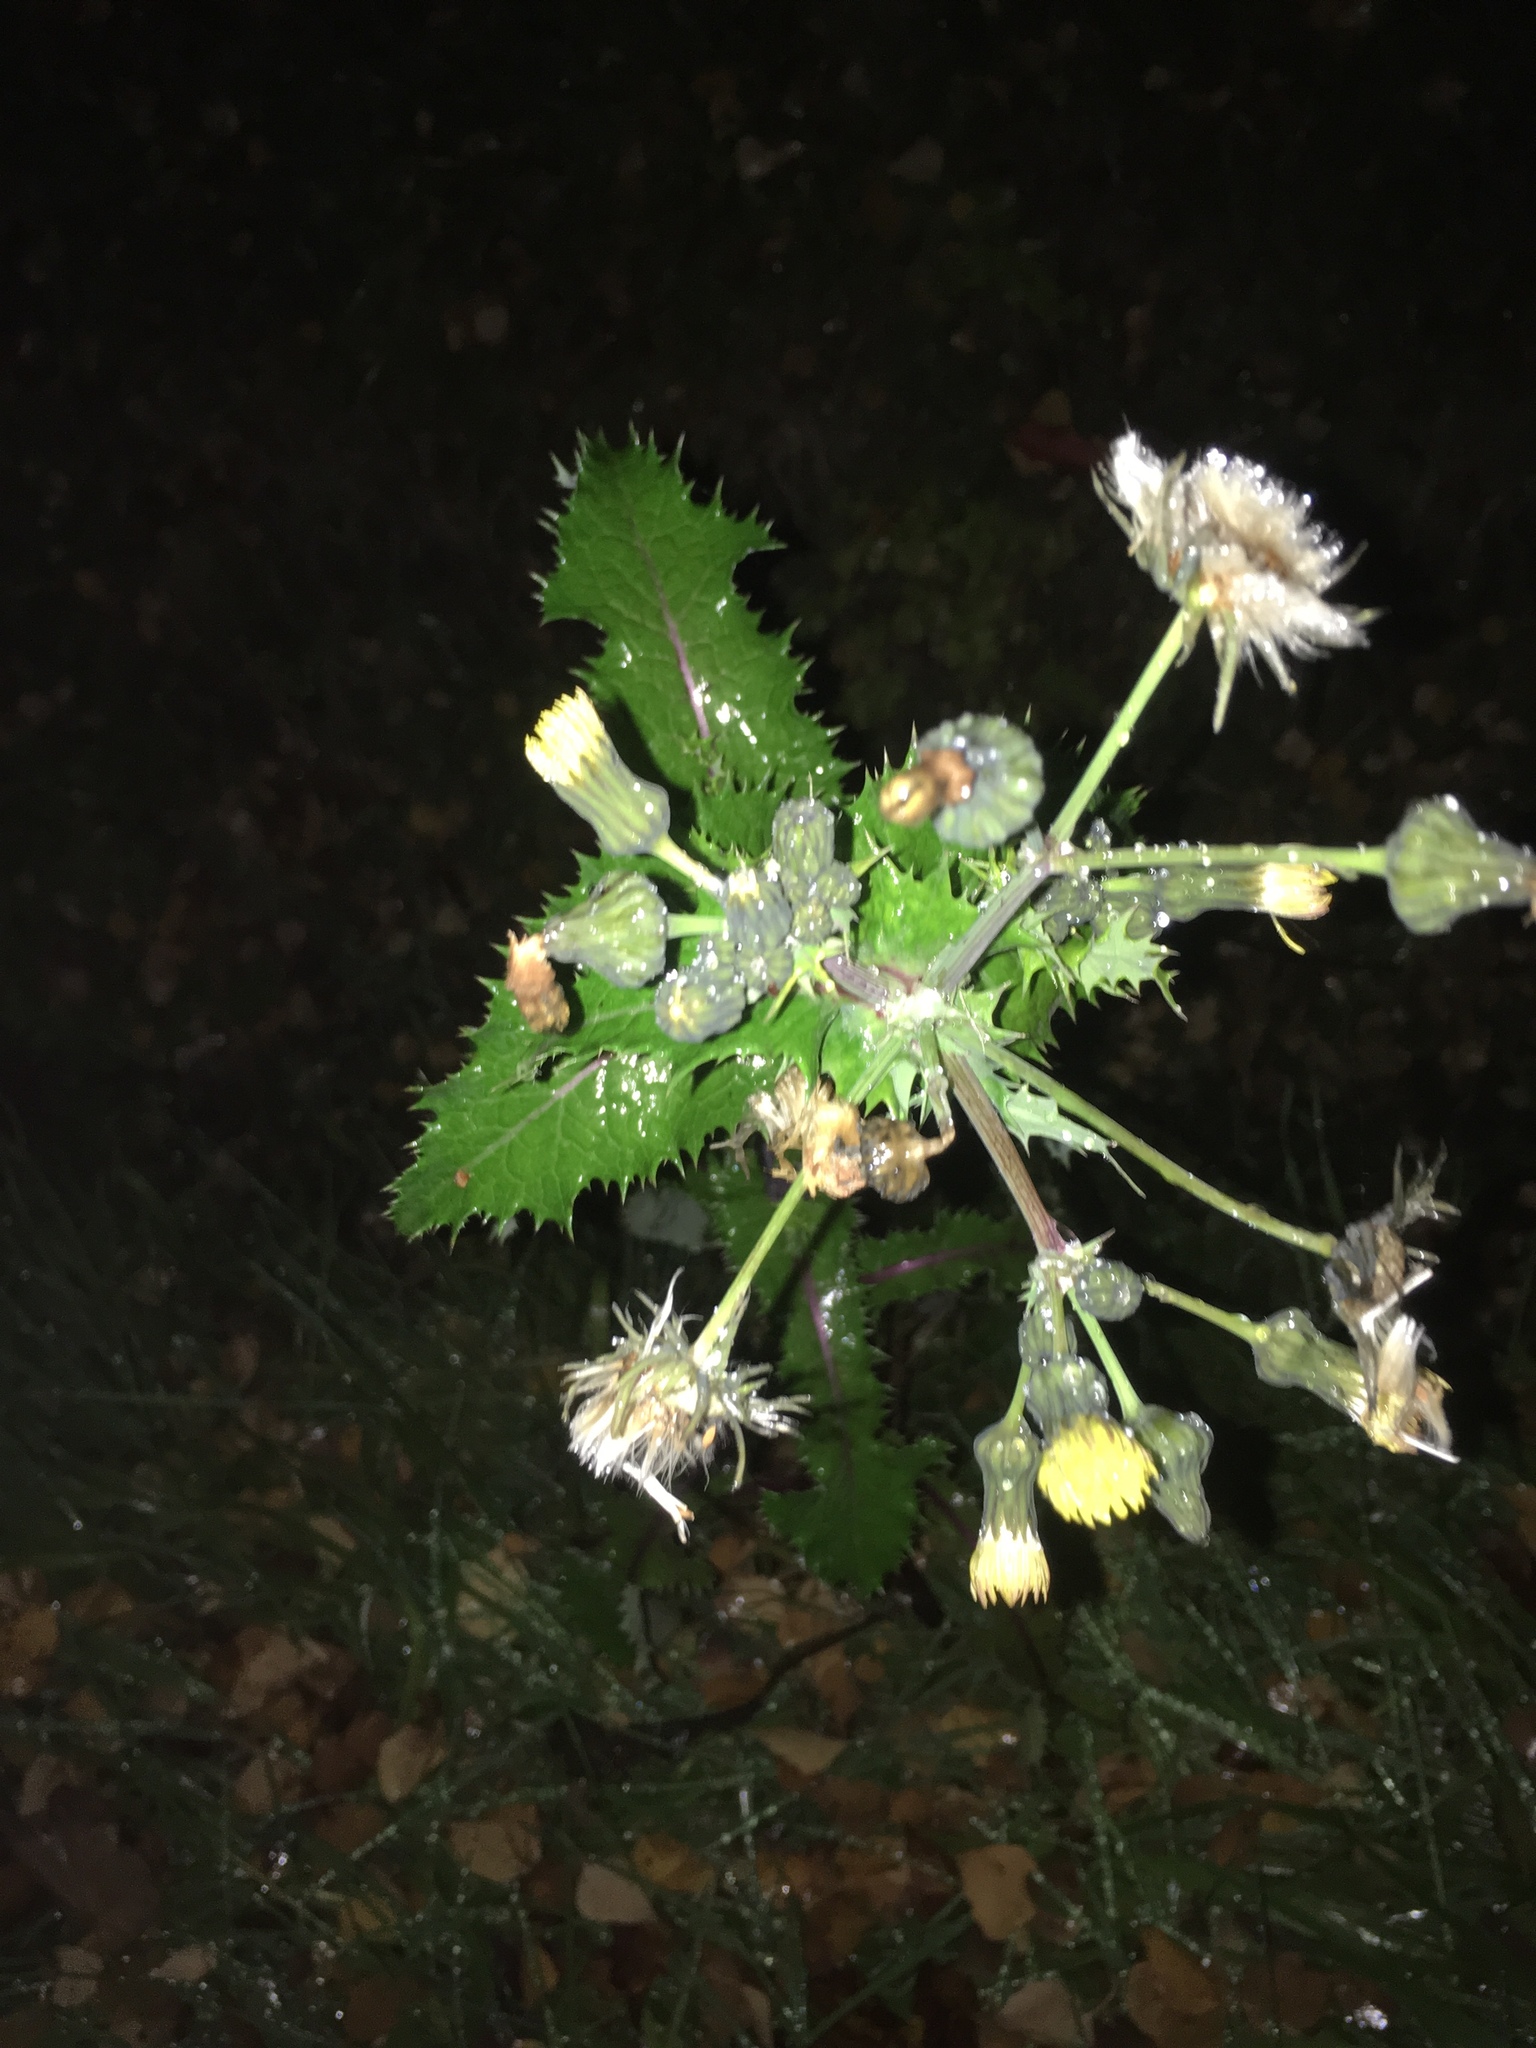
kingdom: Plantae
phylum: Tracheophyta
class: Magnoliopsida
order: Asterales
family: Asteraceae
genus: Sonchus
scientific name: Sonchus asper
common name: Prickly sow-thistle
